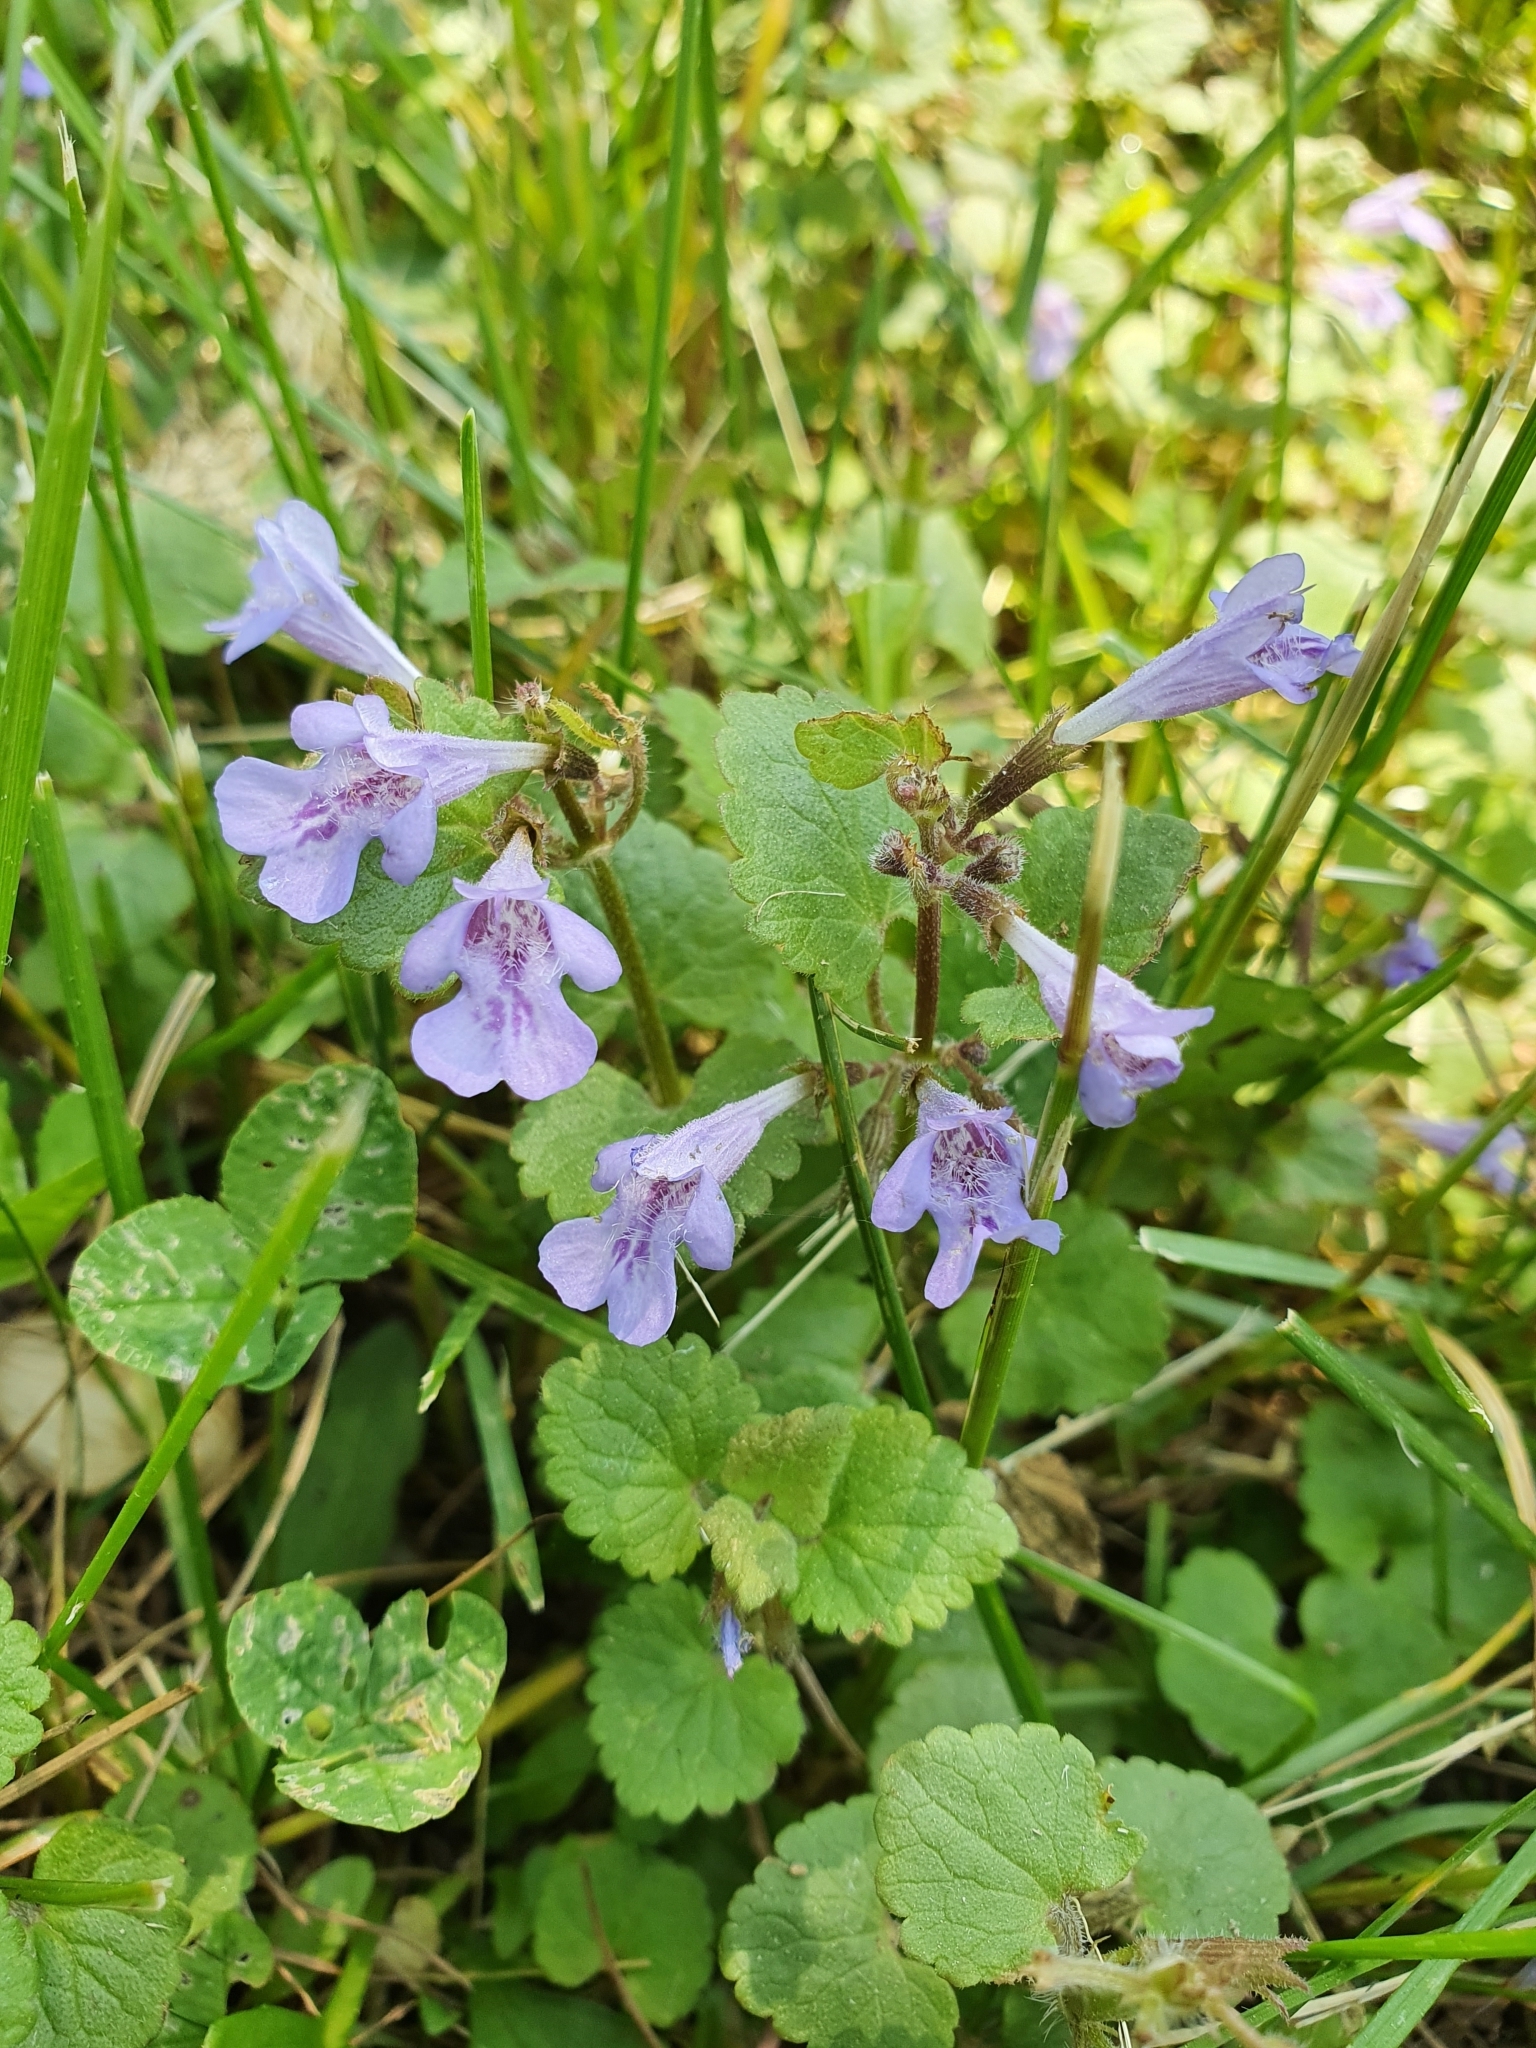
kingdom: Plantae
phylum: Tracheophyta
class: Magnoliopsida
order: Lamiales
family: Lamiaceae
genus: Glechoma
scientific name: Glechoma hederacea
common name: Ground ivy
